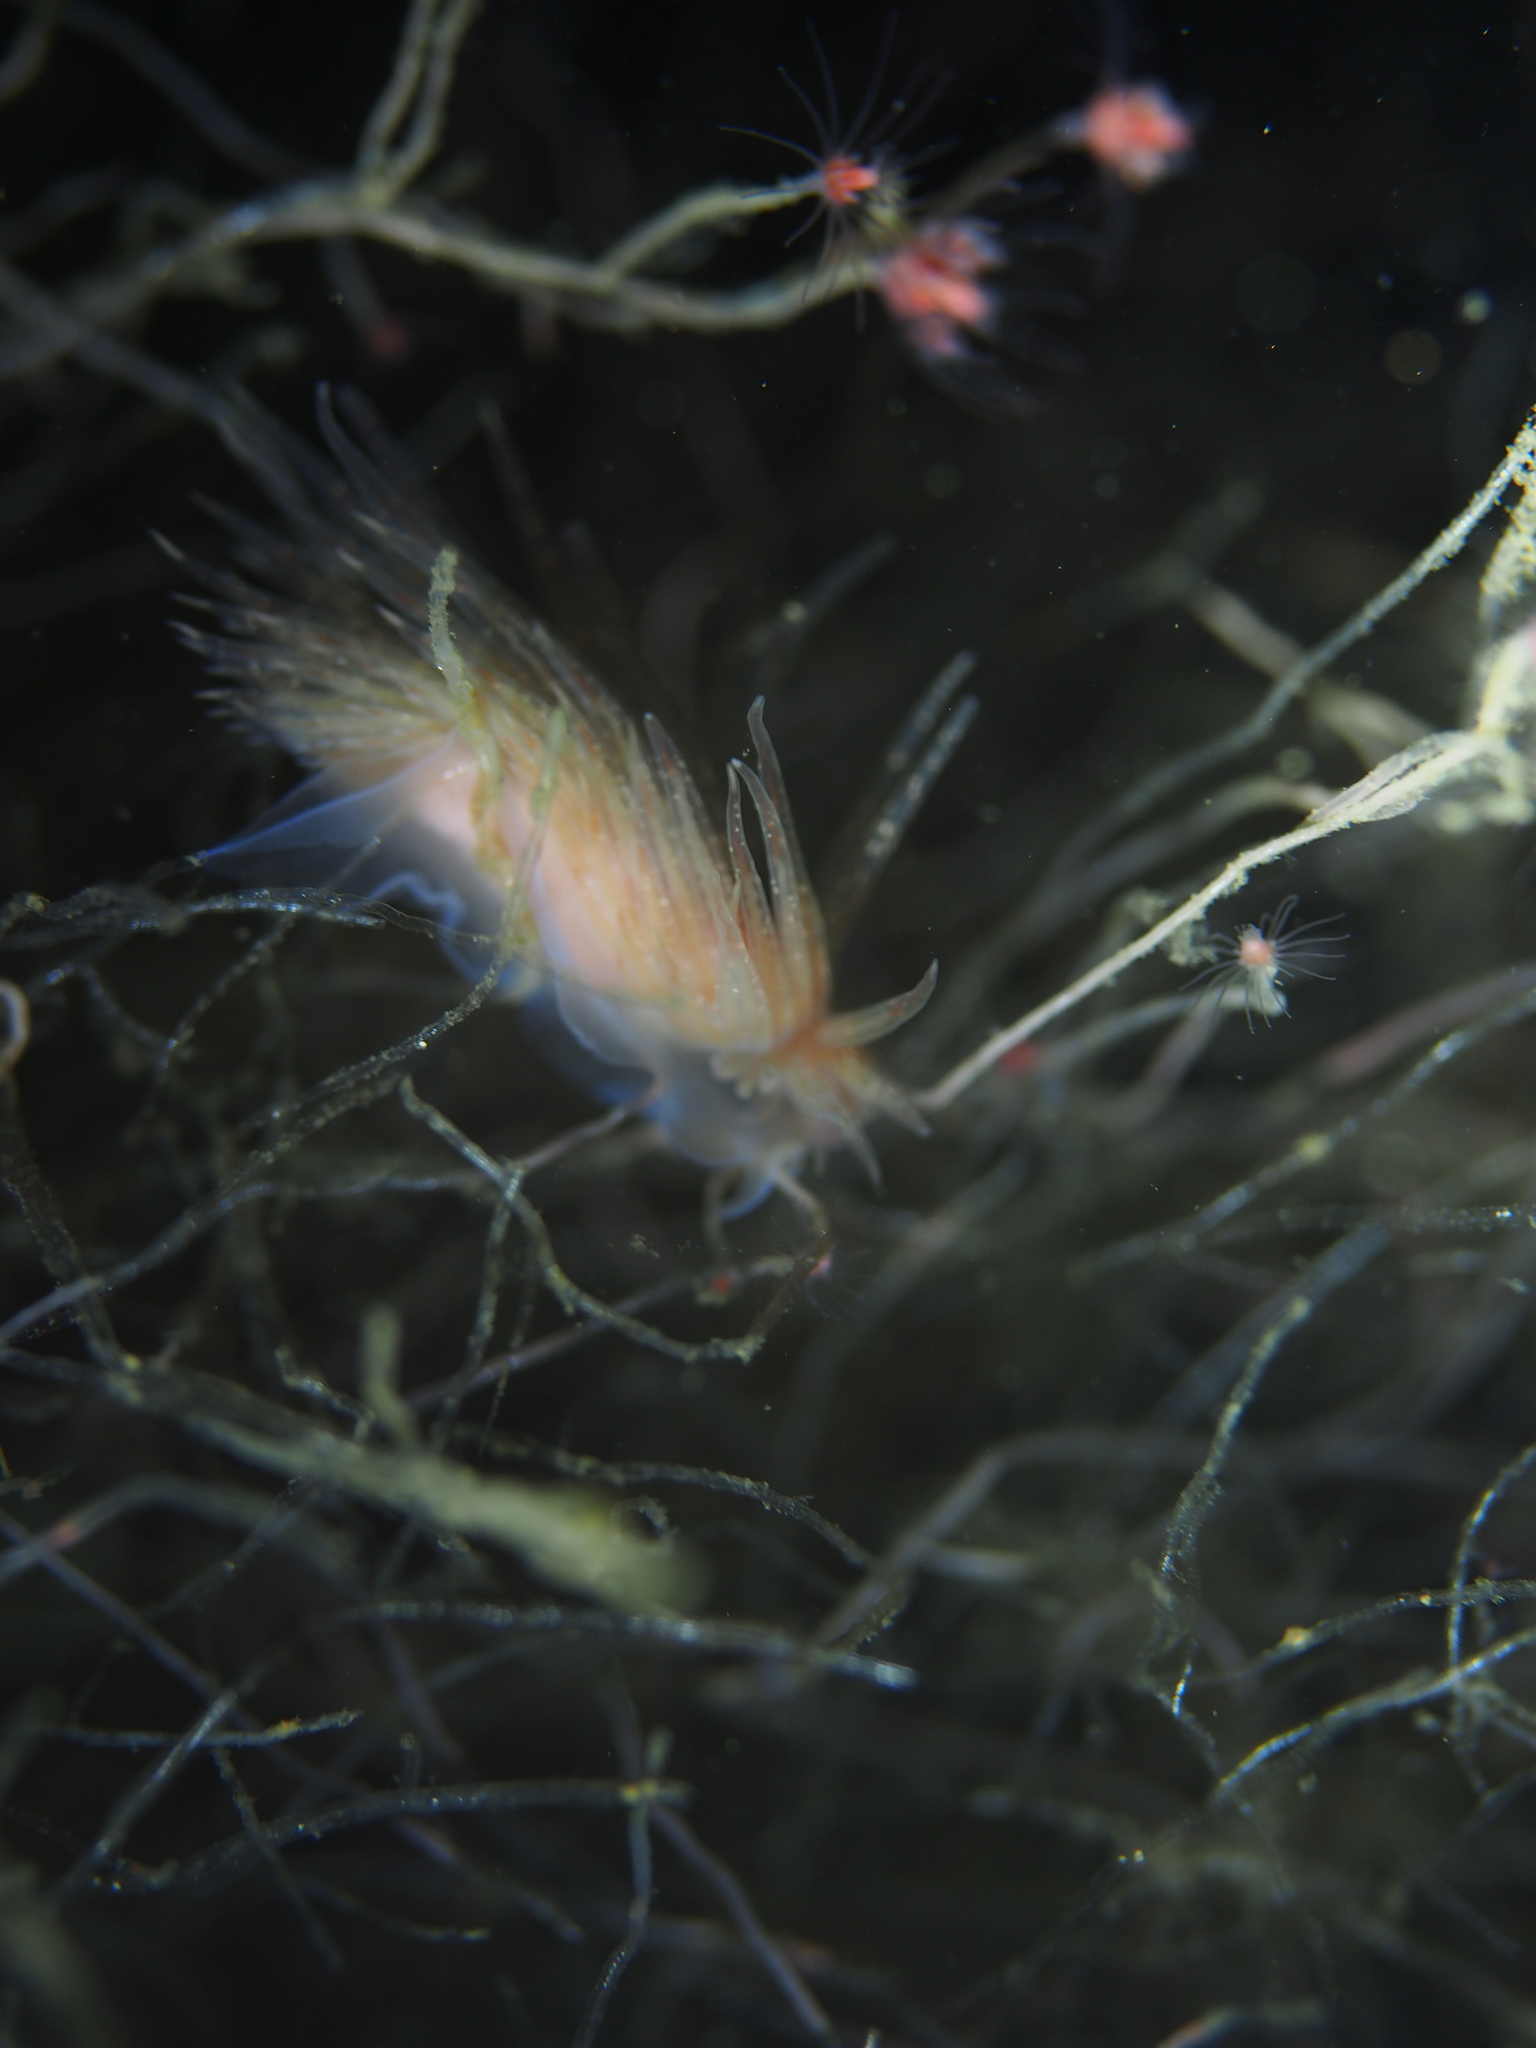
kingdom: Animalia
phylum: Mollusca
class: Gastropoda
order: Nudibranchia
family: Cumanotidae
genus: Cumanotus
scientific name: Cumanotus beaumonti
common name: Polyp aeolis
